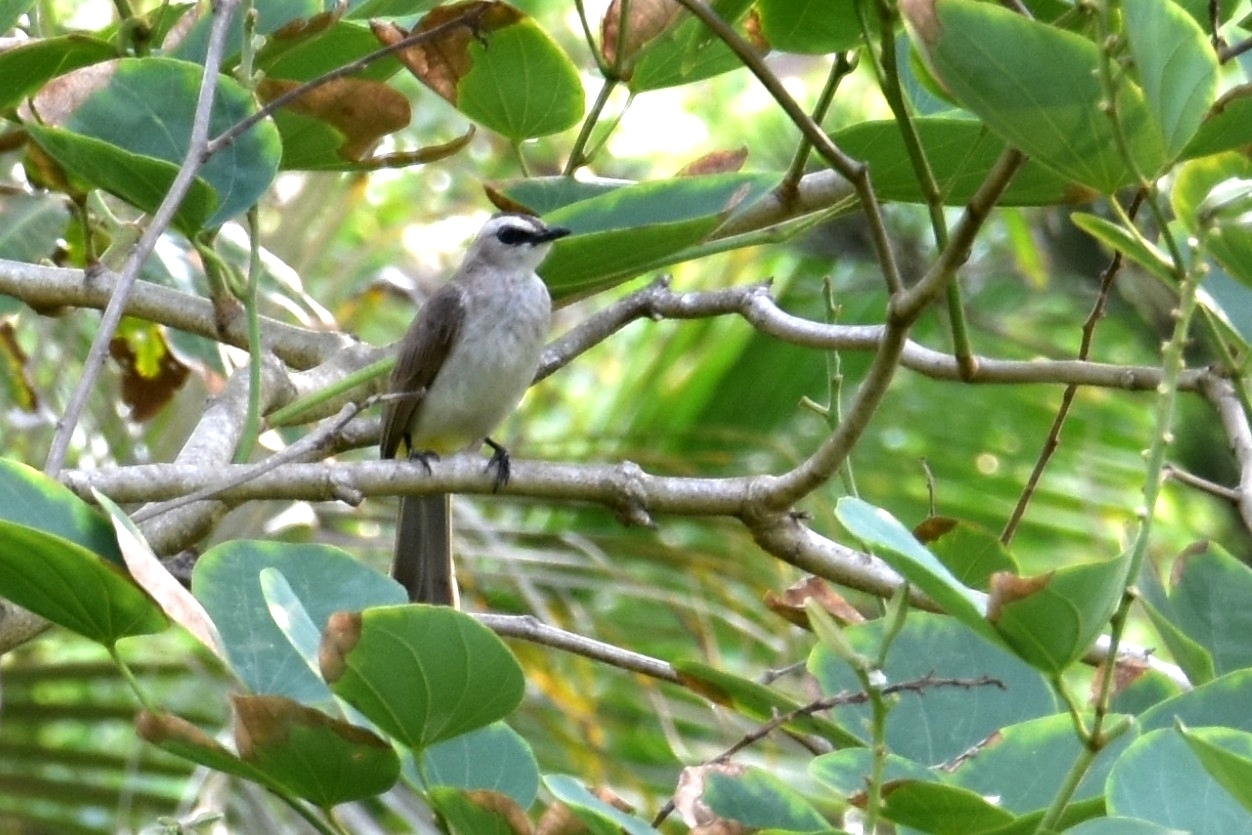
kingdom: Animalia
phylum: Chordata
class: Aves
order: Passeriformes
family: Pycnonotidae
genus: Pycnonotus
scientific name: Pycnonotus goiavier
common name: Yellow-vented bulbul
